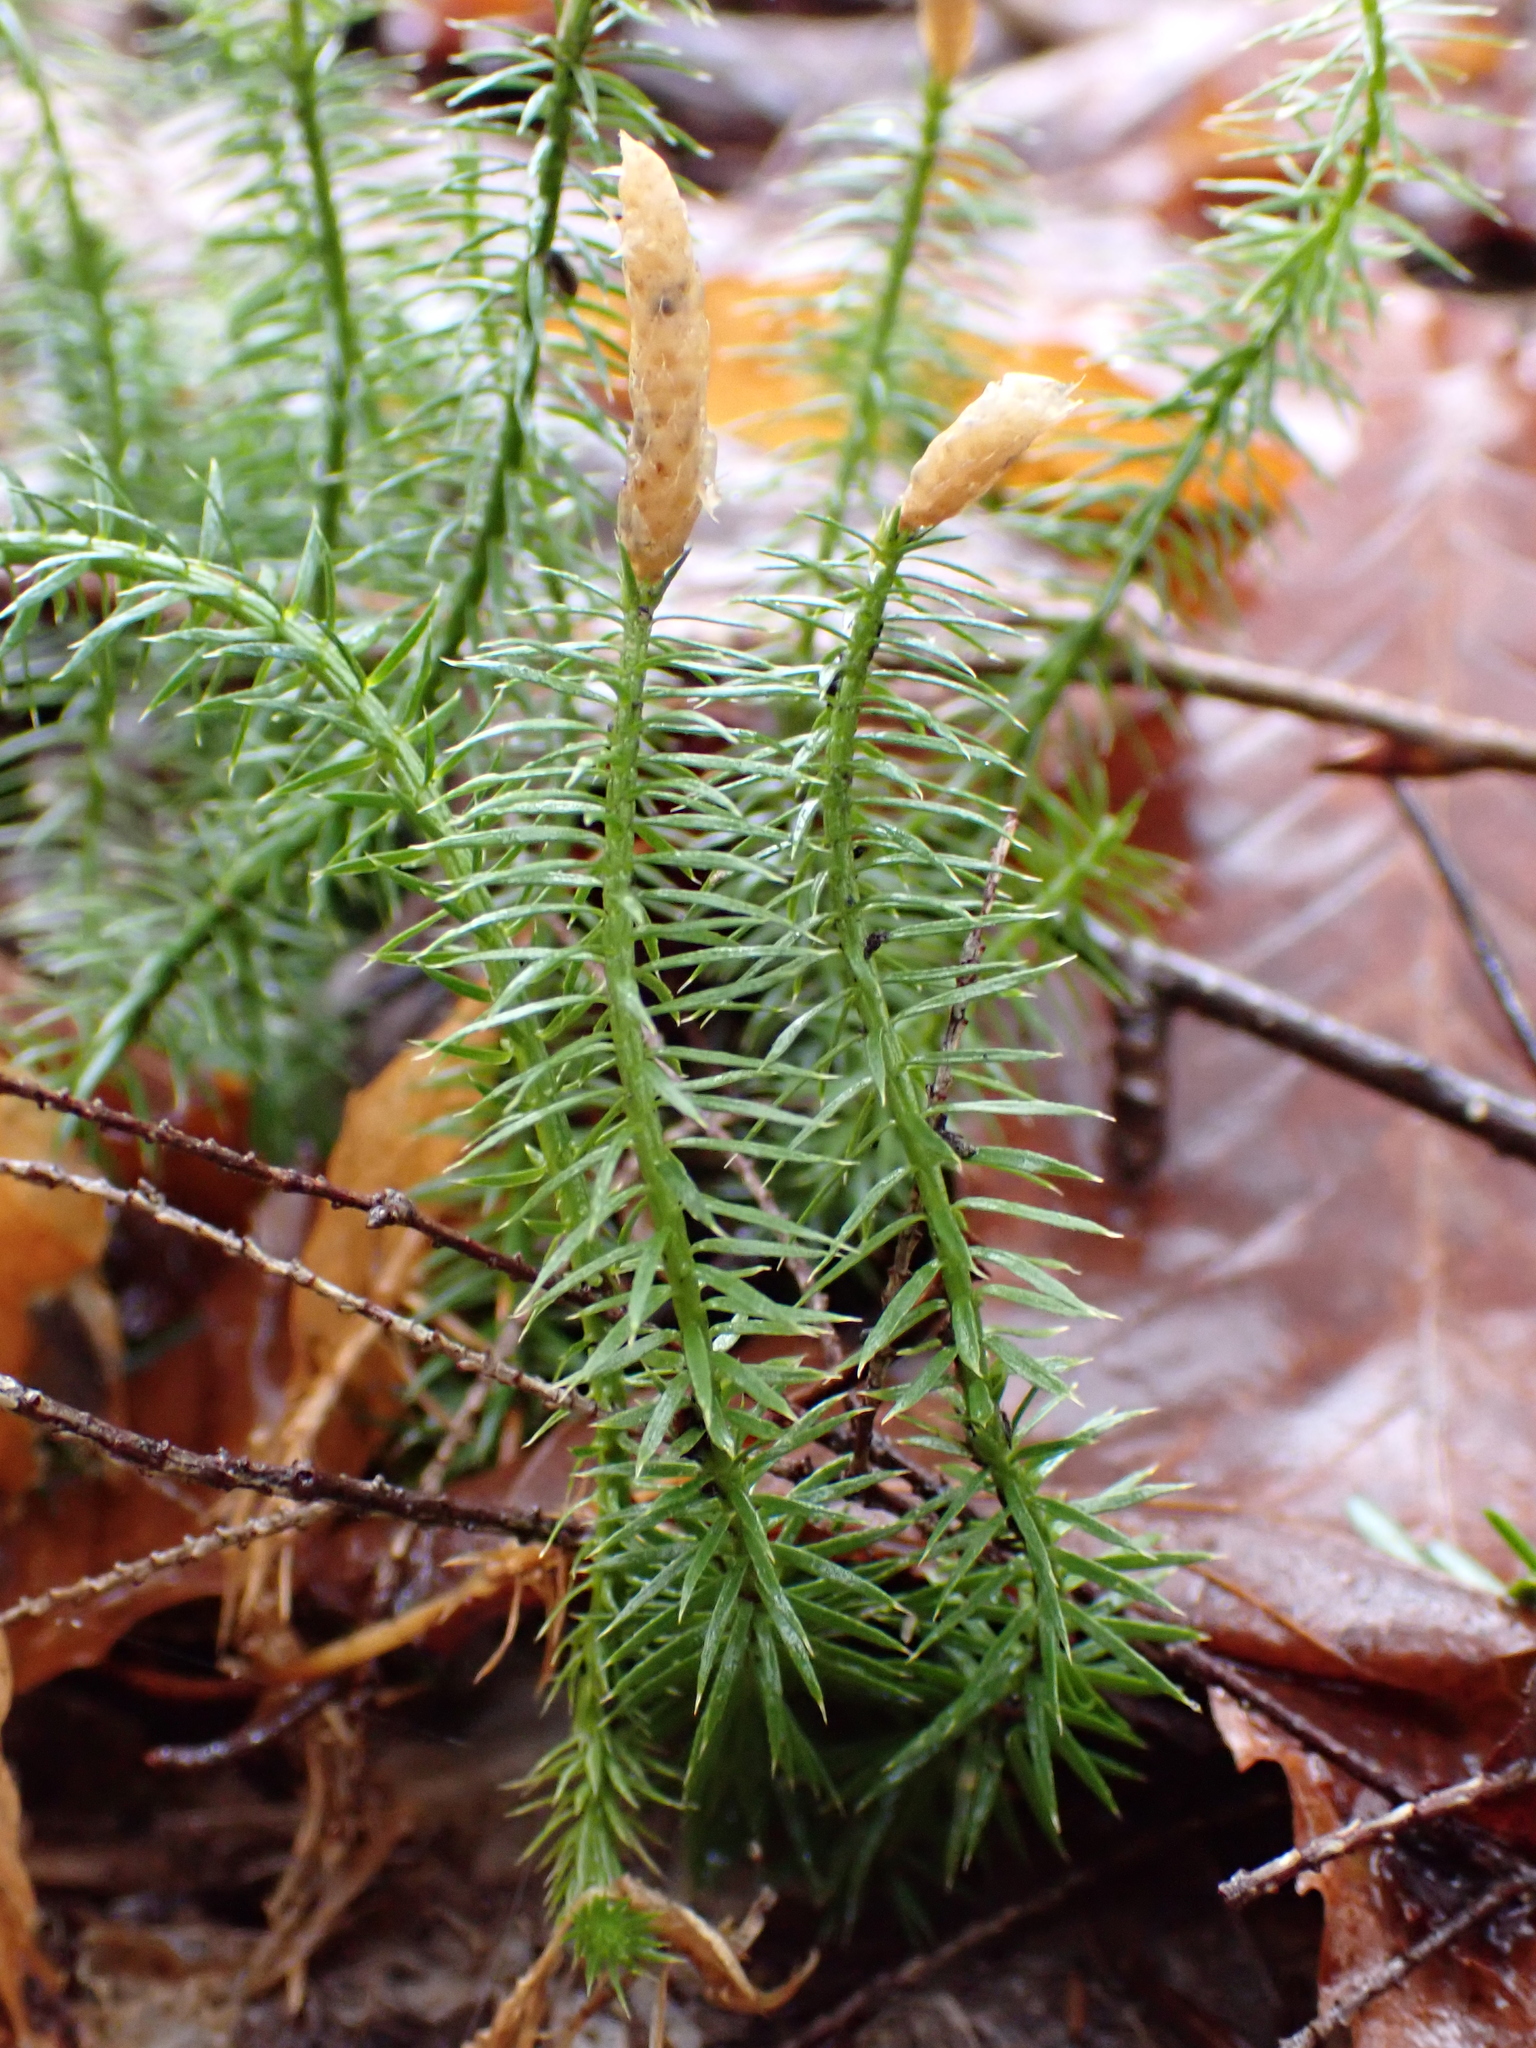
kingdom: Plantae
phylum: Tracheophyta
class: Lycopodiopsida
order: Lycopodiales
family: Lycopodiaceae
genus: Spinulum
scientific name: Spinulum annotinum
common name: Interrupted club-moss
